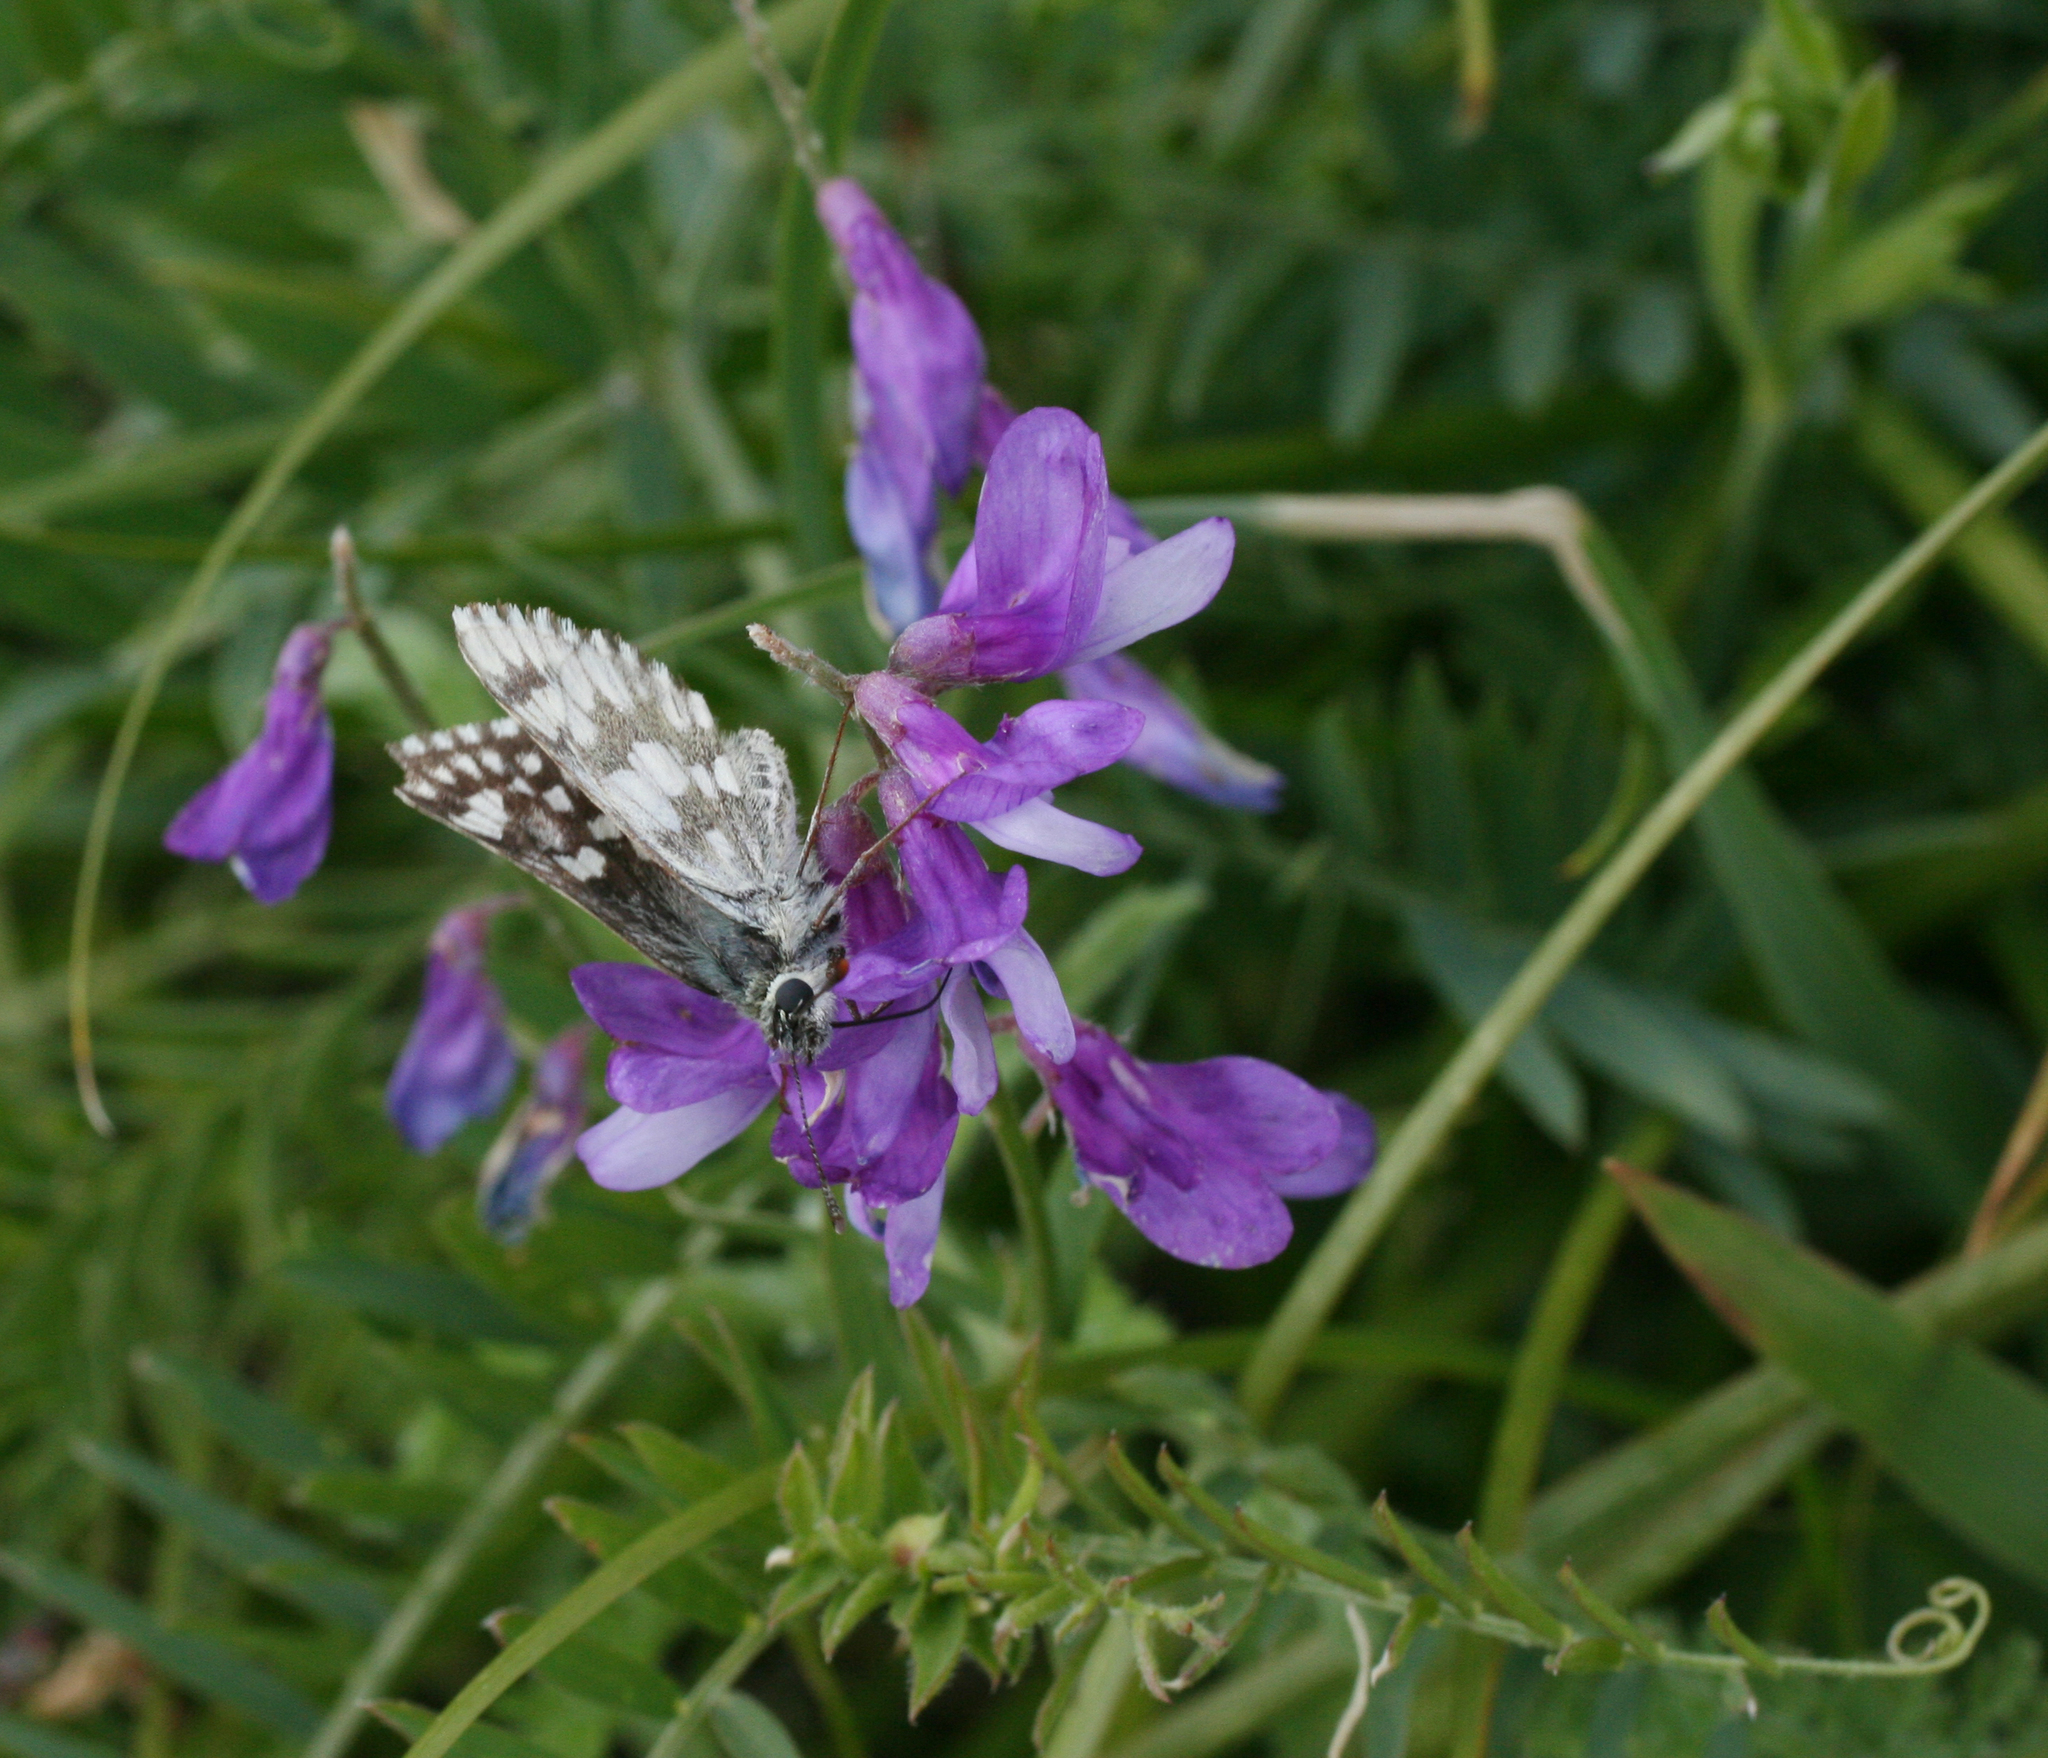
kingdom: Plantae
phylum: Tracheophyta
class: Magnoliopsida
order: Fabales
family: Fabaceae
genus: Vicia
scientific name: Vicia tenuifolia
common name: Fine-leaved vetch
